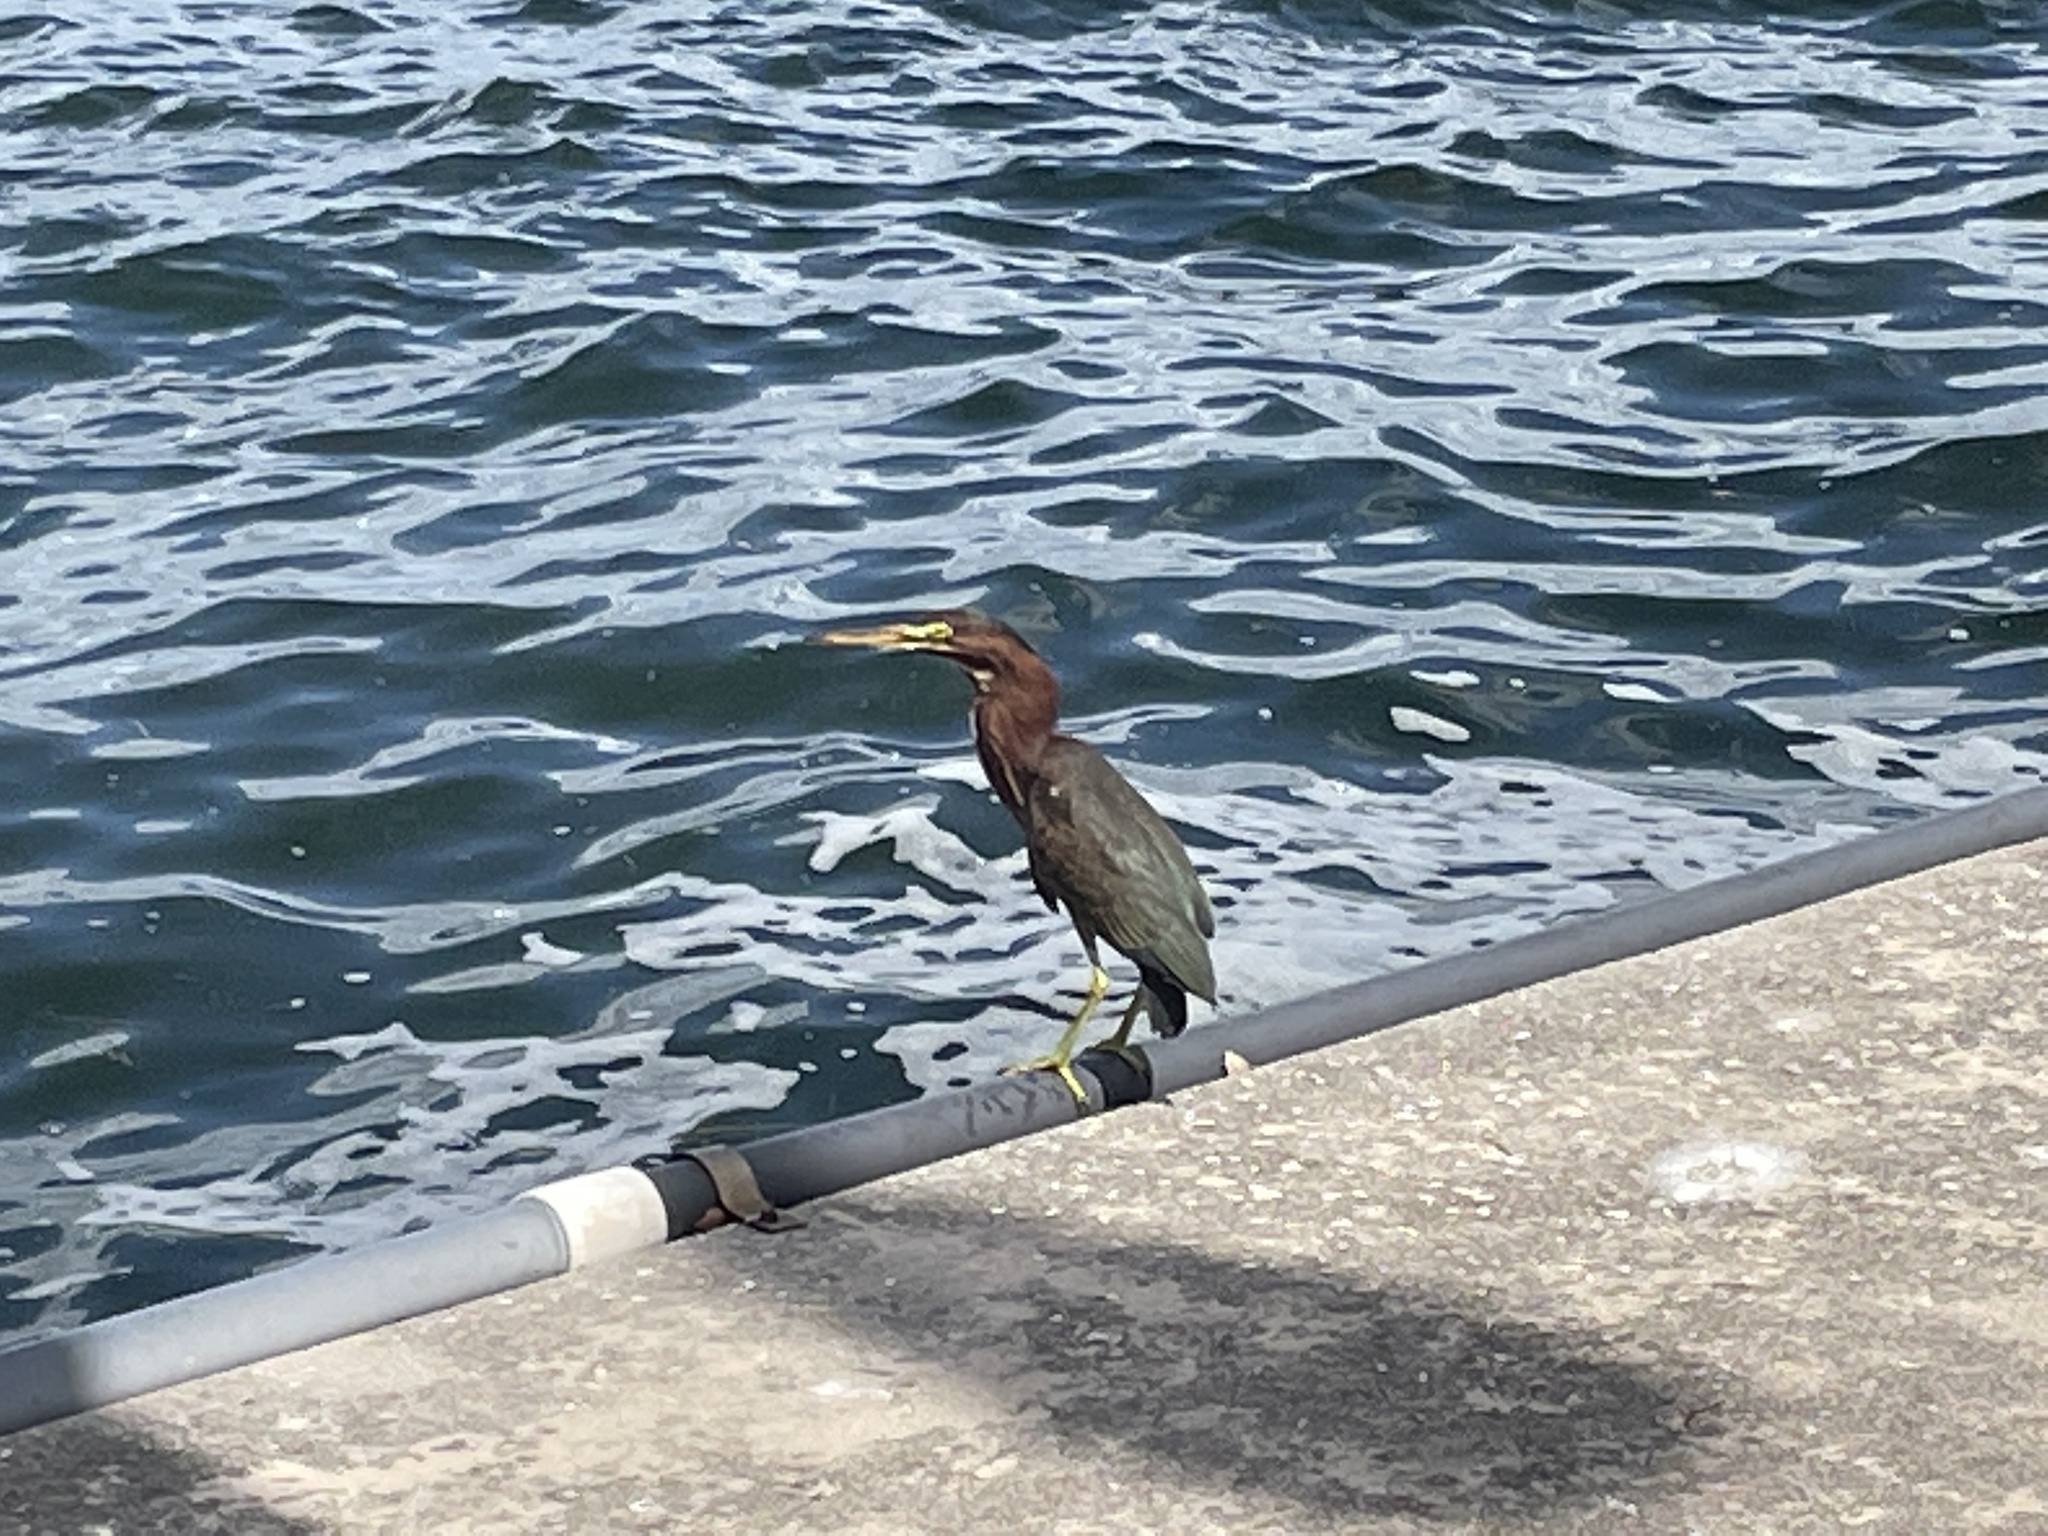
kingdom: Animalia
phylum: Chordata
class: Aves
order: Pelecaniformes
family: Ardeidae
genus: Butorides
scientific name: Butorides virescens
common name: Green heron
